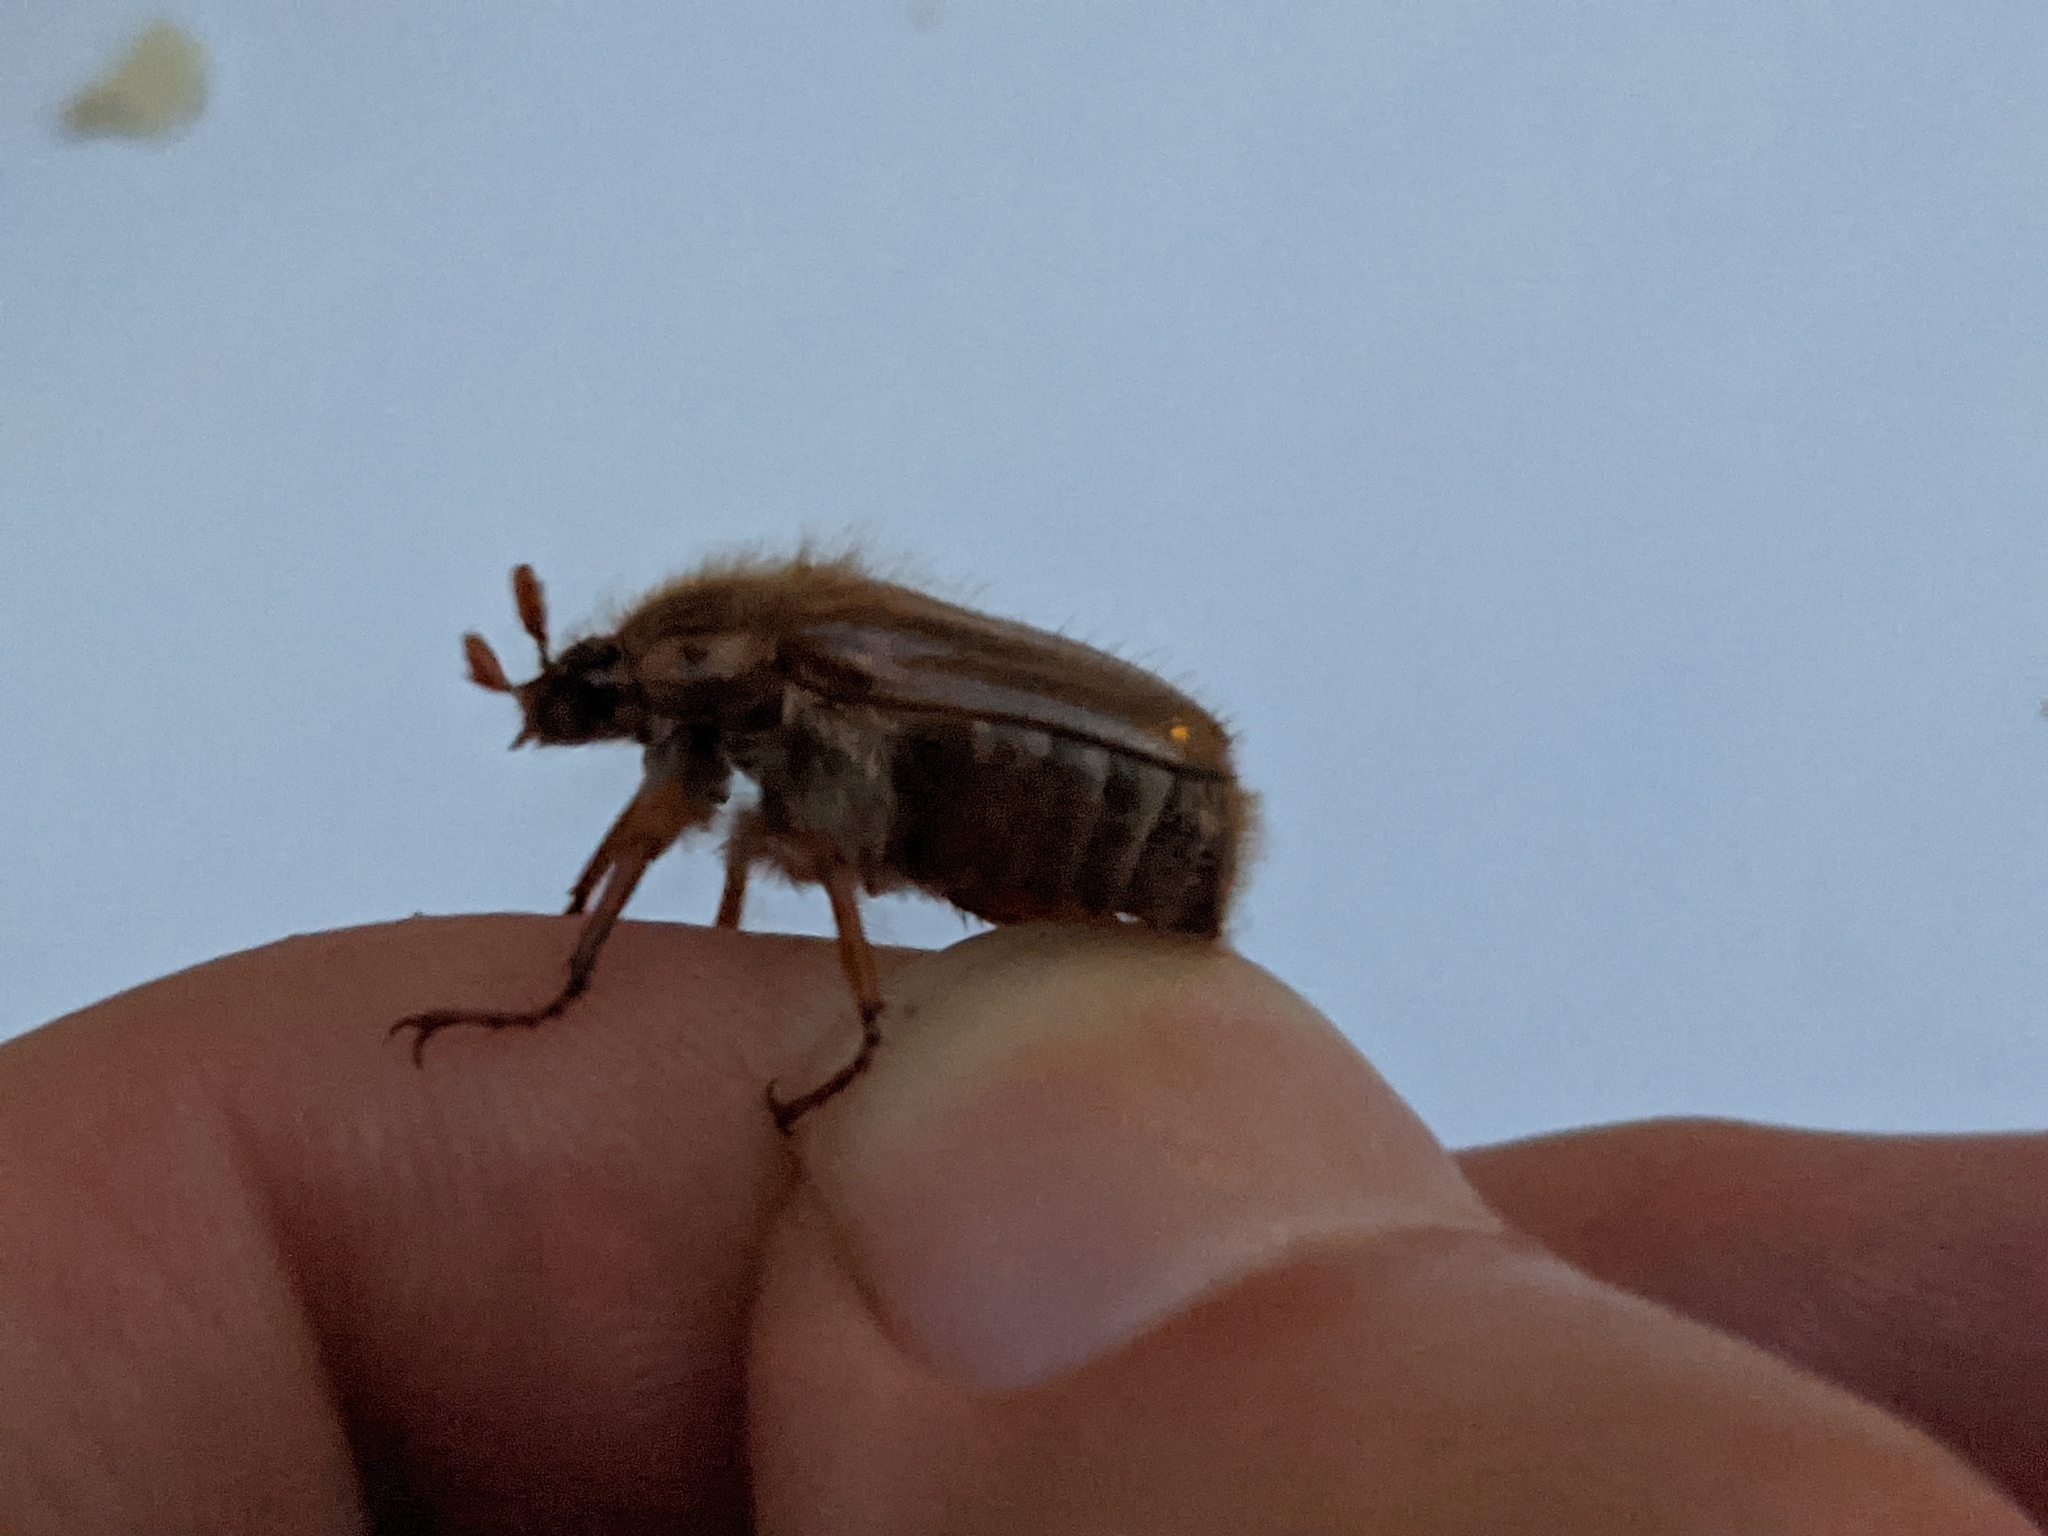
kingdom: Animalia
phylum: Arthropoda
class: Insecta
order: Coleoptera
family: Scarabaeidae
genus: Amphimallon
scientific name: Amphimallon solstitiale
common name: Summer chafer
